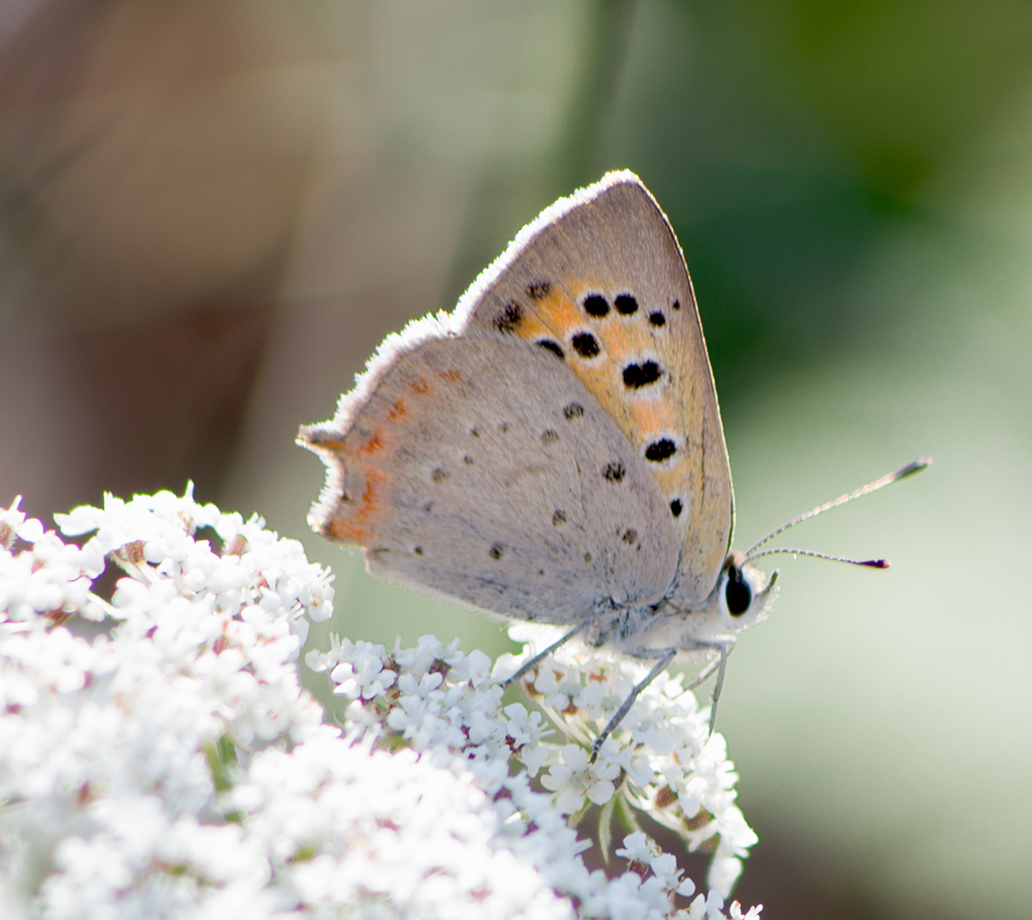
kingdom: Animalia
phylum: Arthropoda
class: Insecta
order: Lepidoptera
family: Lycaenidae
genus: Lycaena
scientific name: Lycaena phlaeas
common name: Small copper
